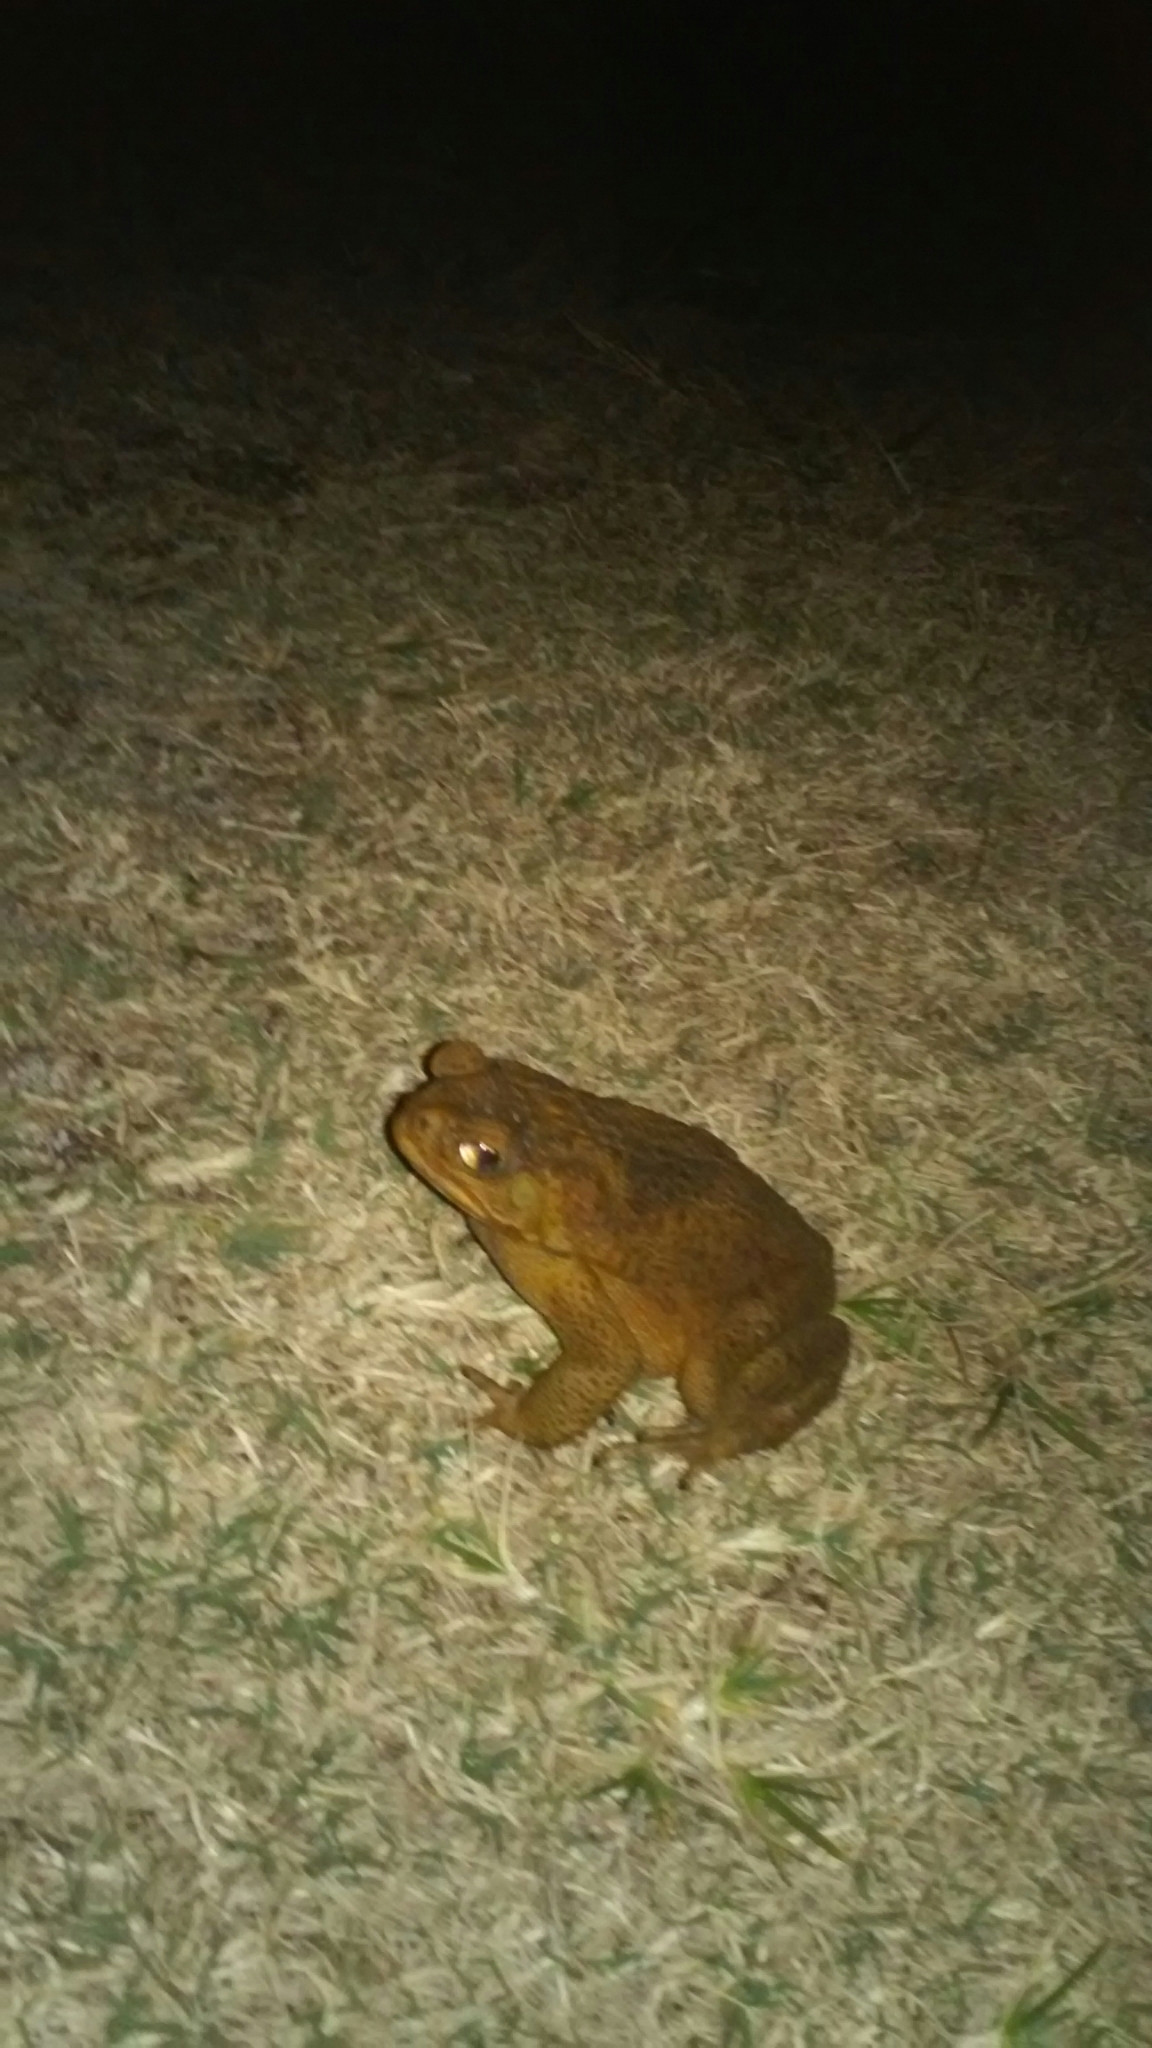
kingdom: Animalia
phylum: Chordata
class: Amphibia
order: Anura
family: Bufonidae
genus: Rhinella
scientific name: Rhinella marina
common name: Cane toad
